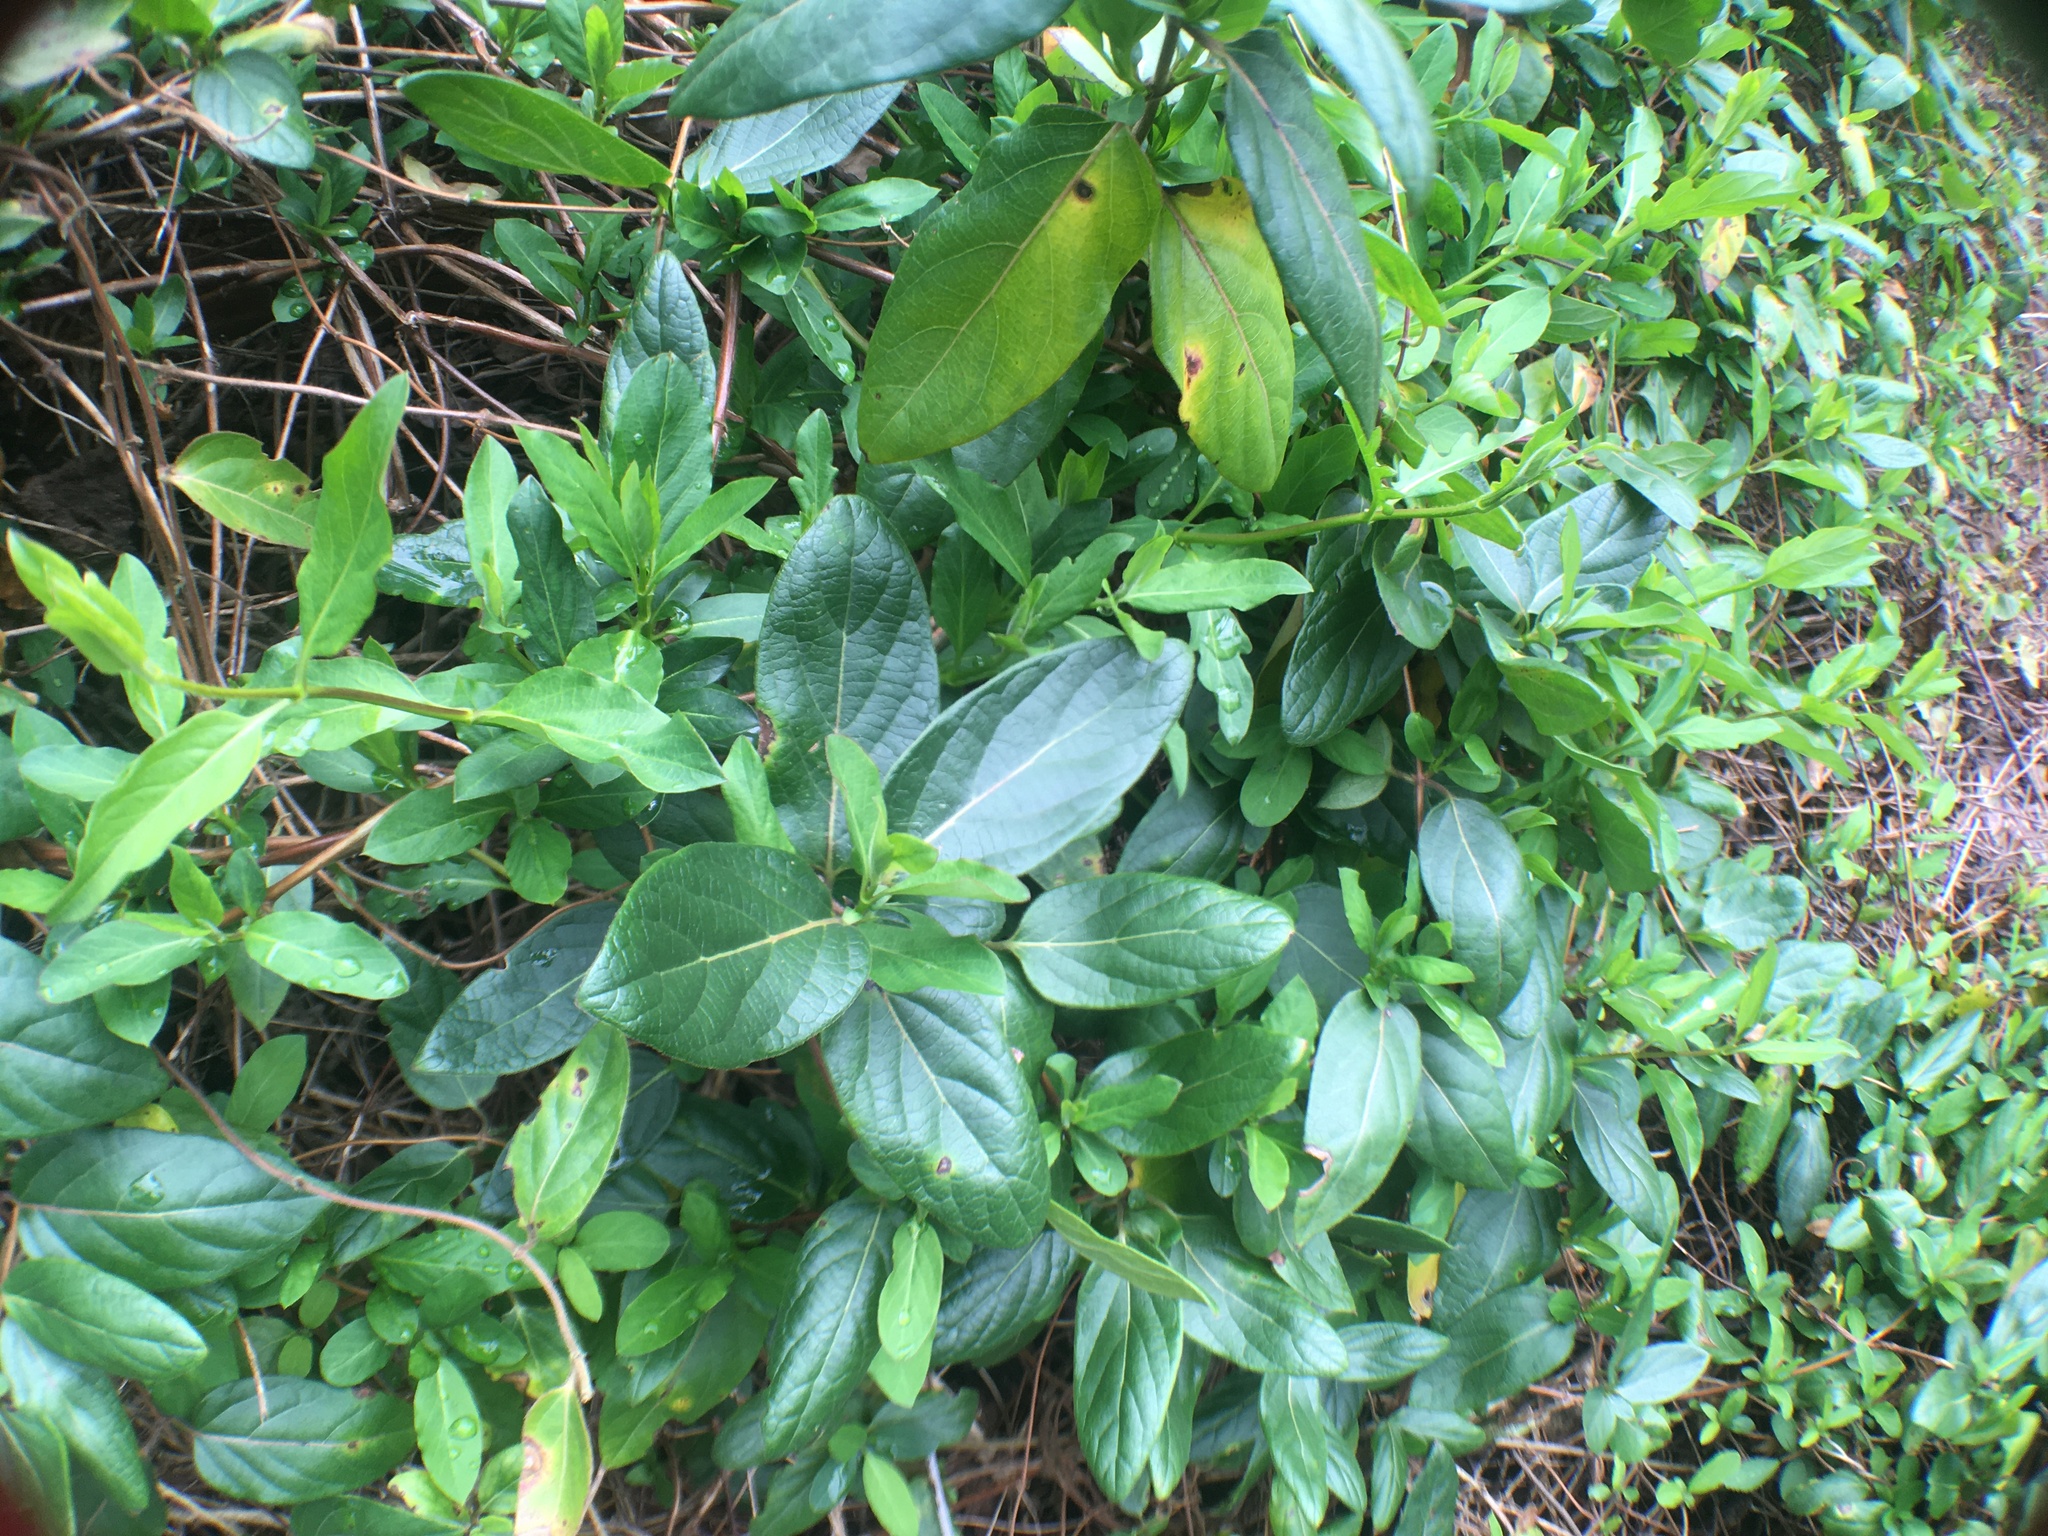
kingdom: Plantae
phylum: Tracheophyta
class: Magnoliopsida
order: Dipsacales
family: Caprifoliaceae
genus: Lonicera
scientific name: Lonicera japonica
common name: Japanese honeysuckle
